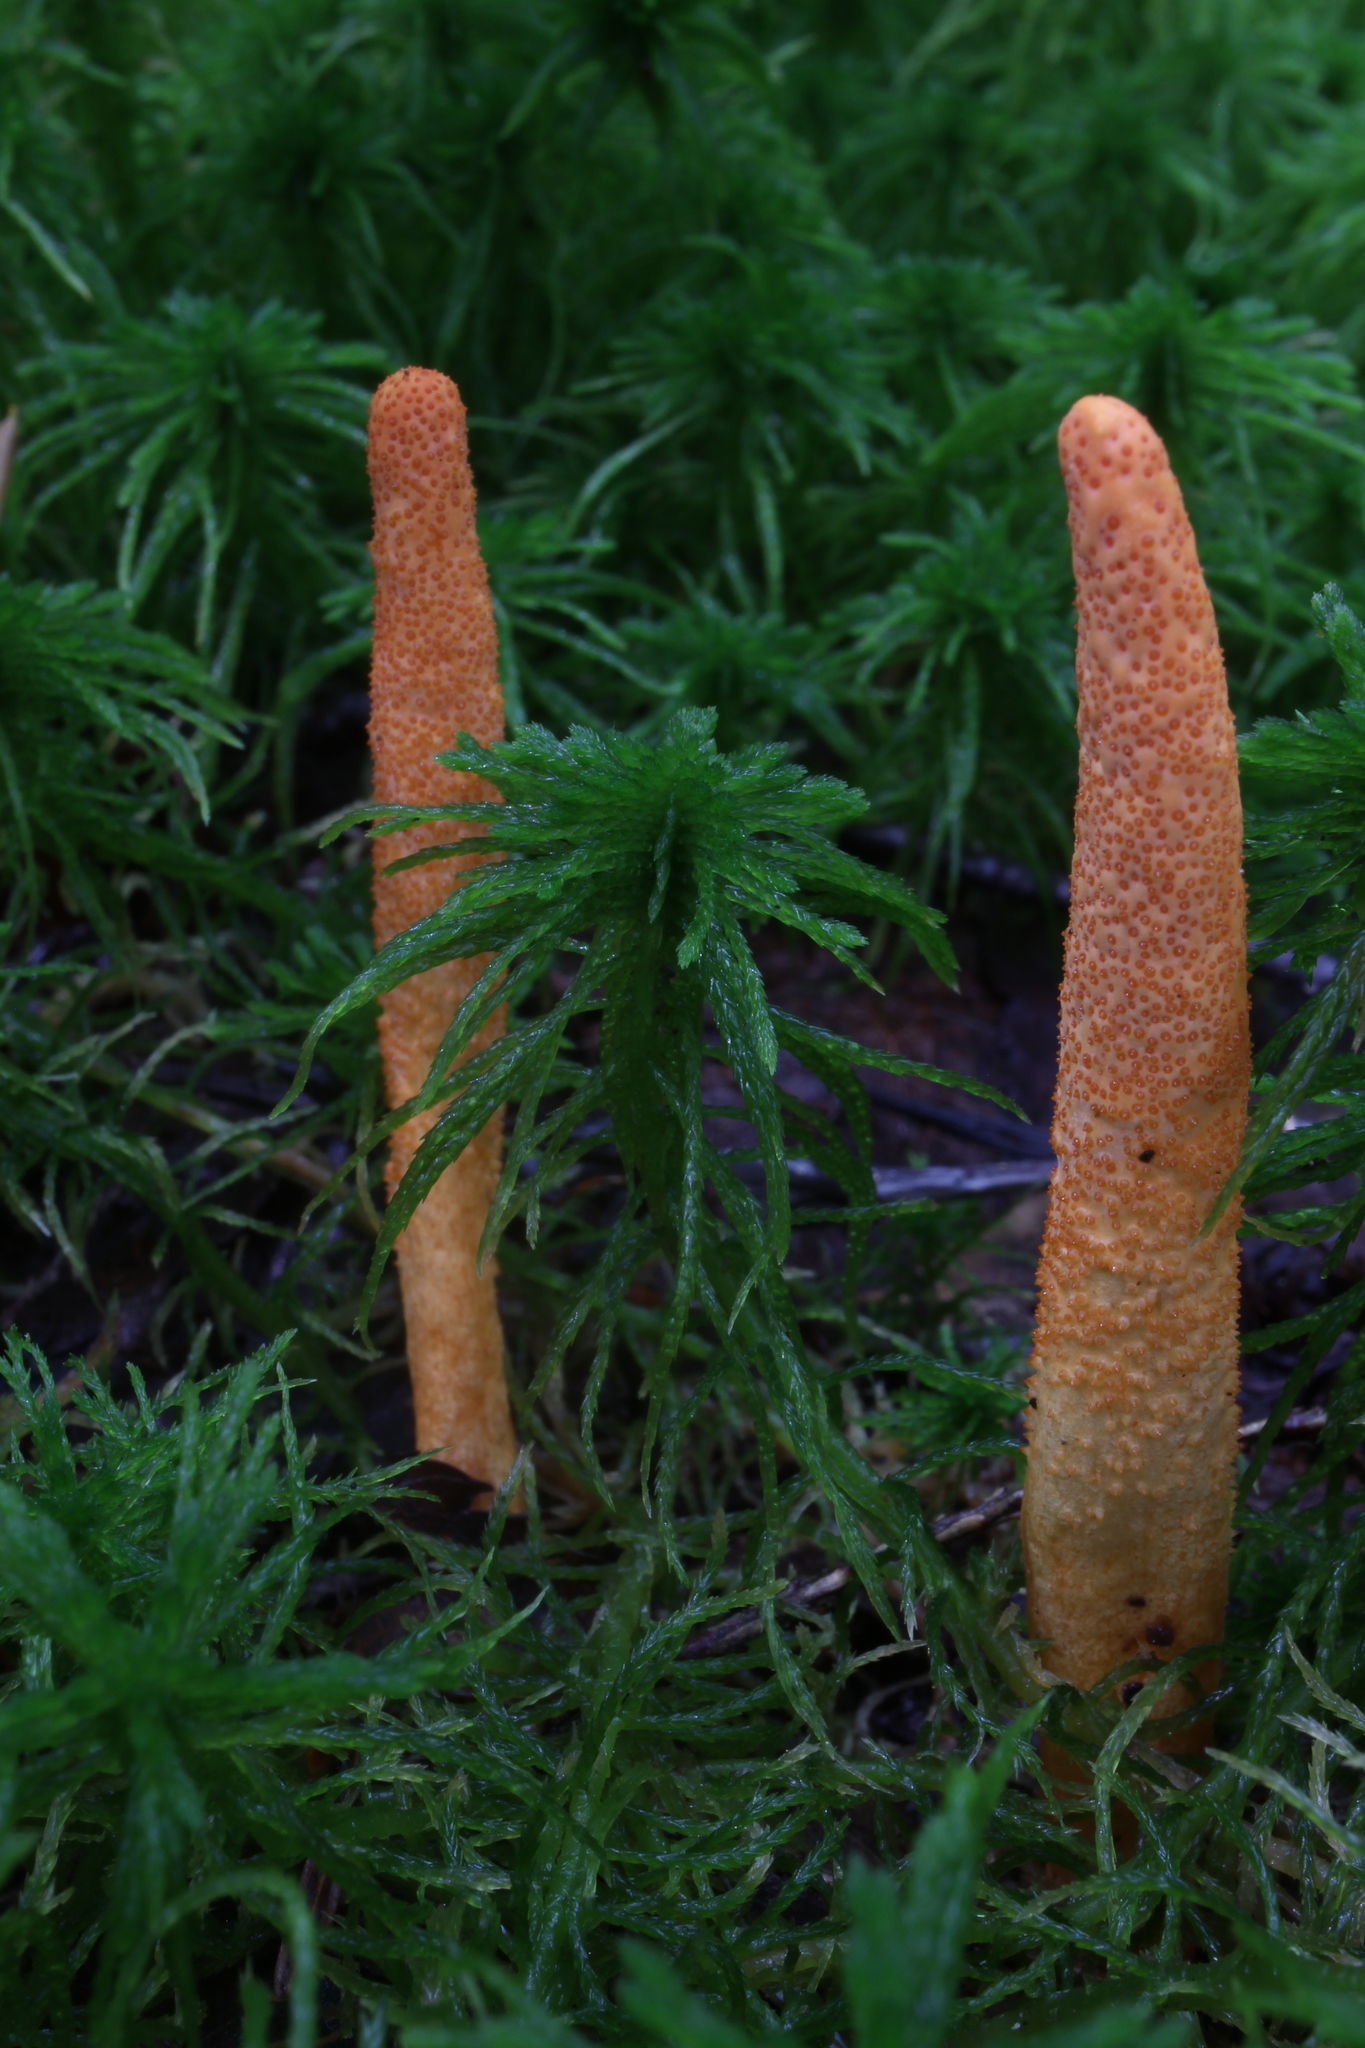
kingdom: Fungi
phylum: Ascomycota
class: Sordariomycetes
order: Hypocreales
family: Cordycipitaceae
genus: Cordyceps
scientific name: Cordyceps militaris
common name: Scarlet caterpillar fungus
